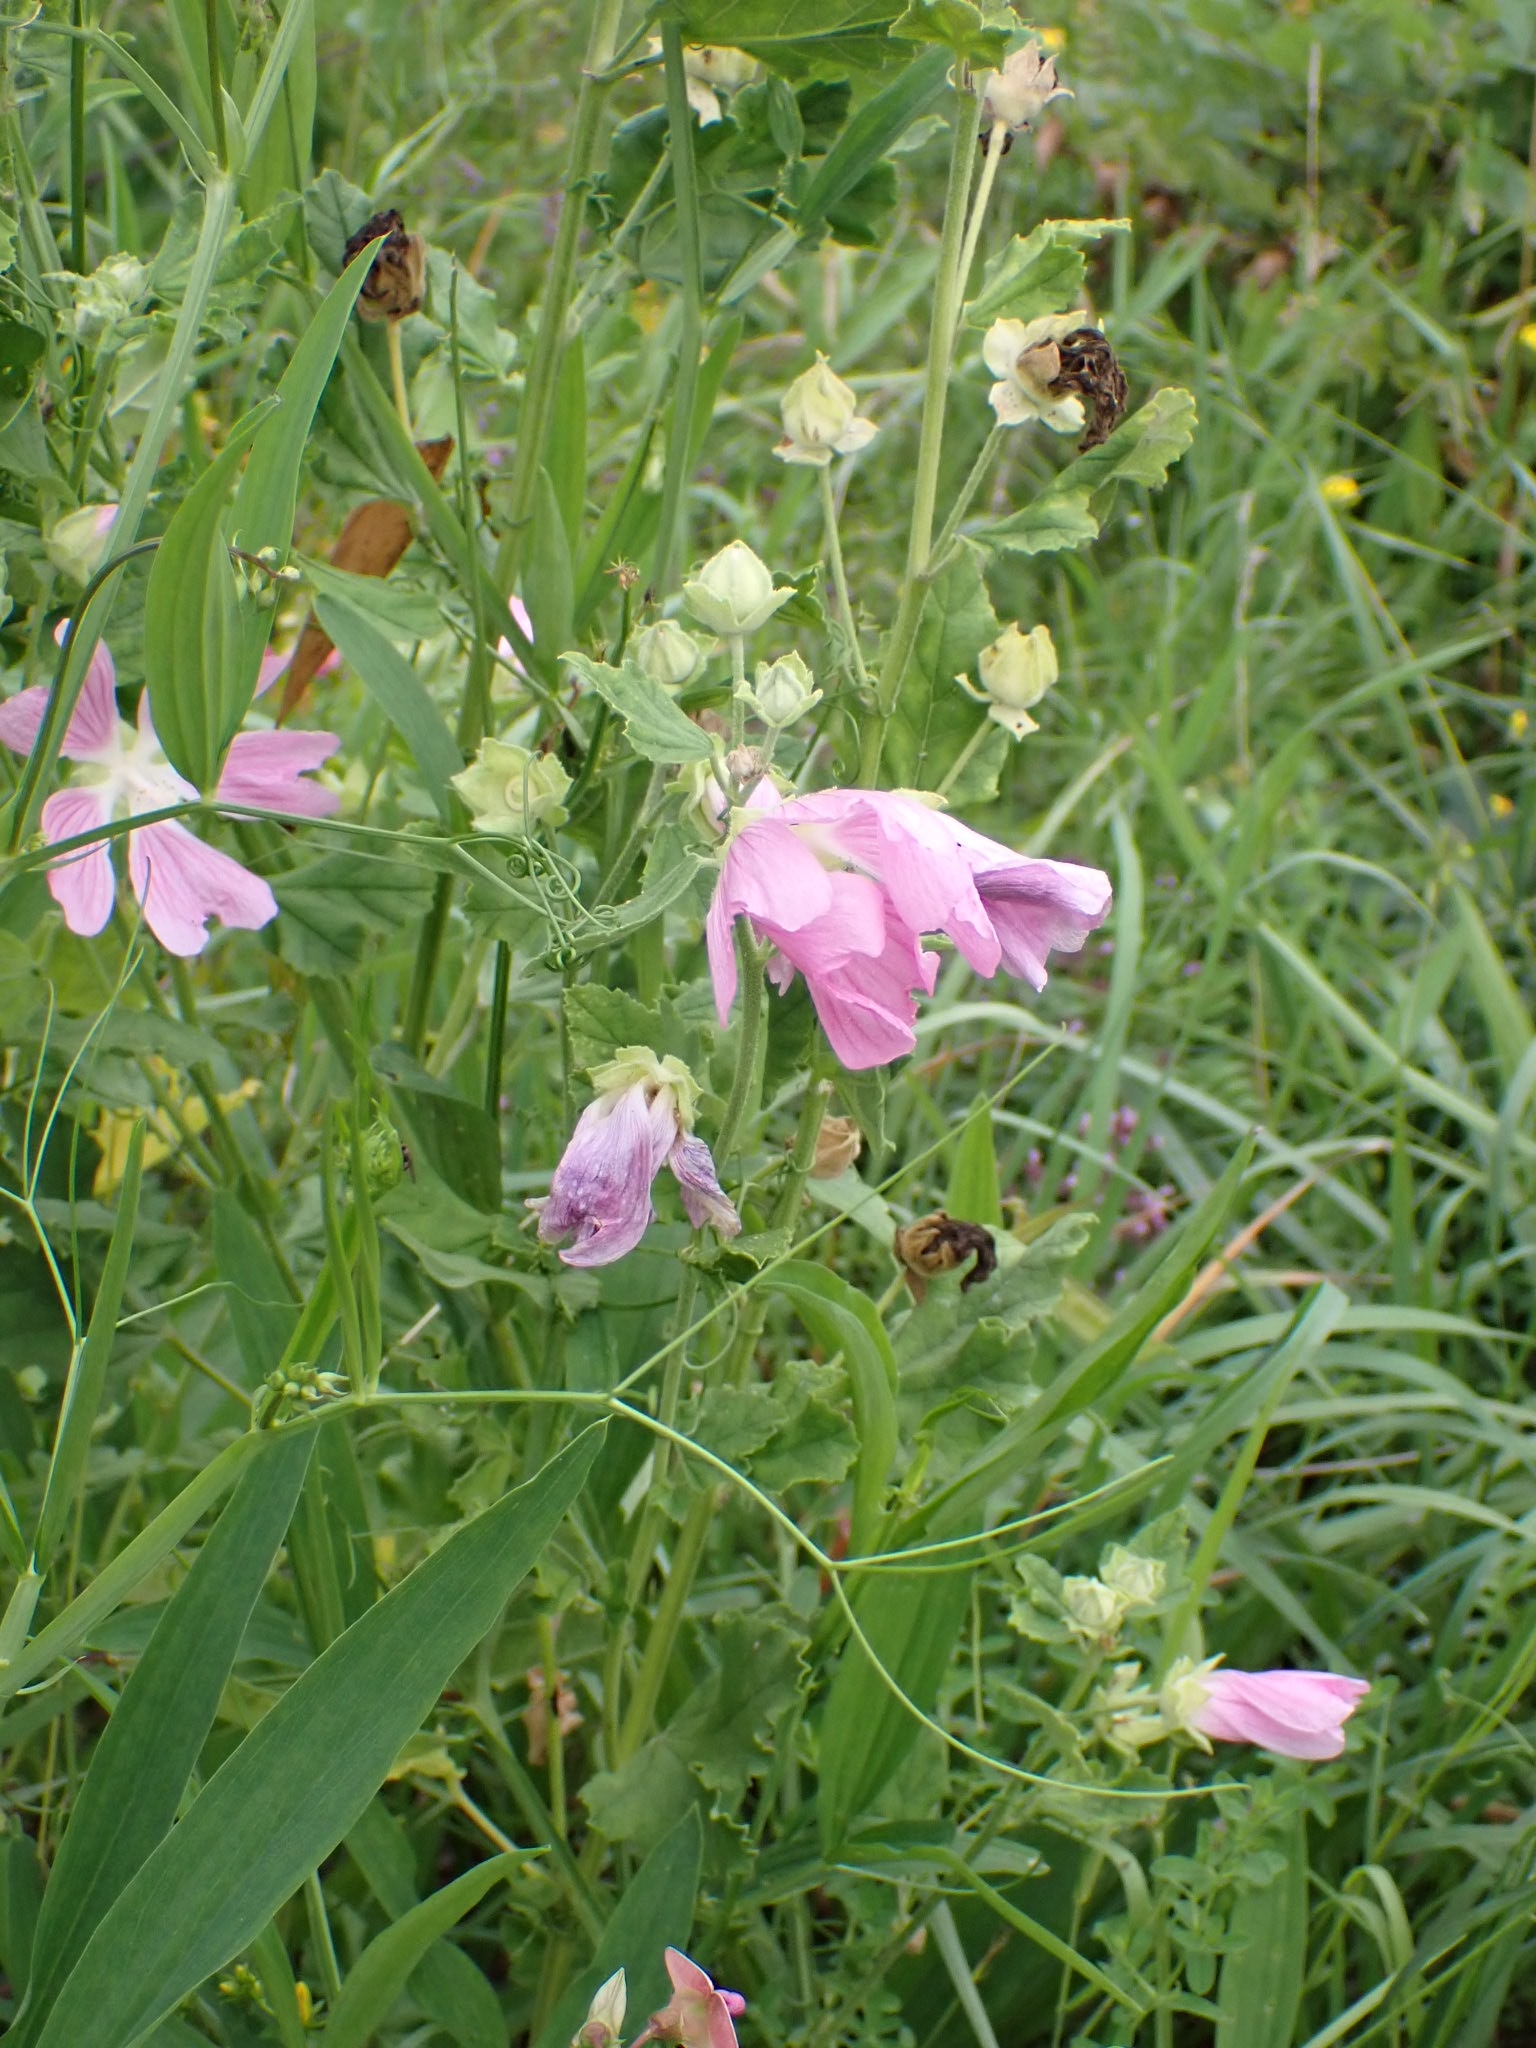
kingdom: Plantae
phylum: Tracheophyta
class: Magnoliopsida
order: Malvales
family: Malvaceae
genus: Malva
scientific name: Malva thuringiaca
